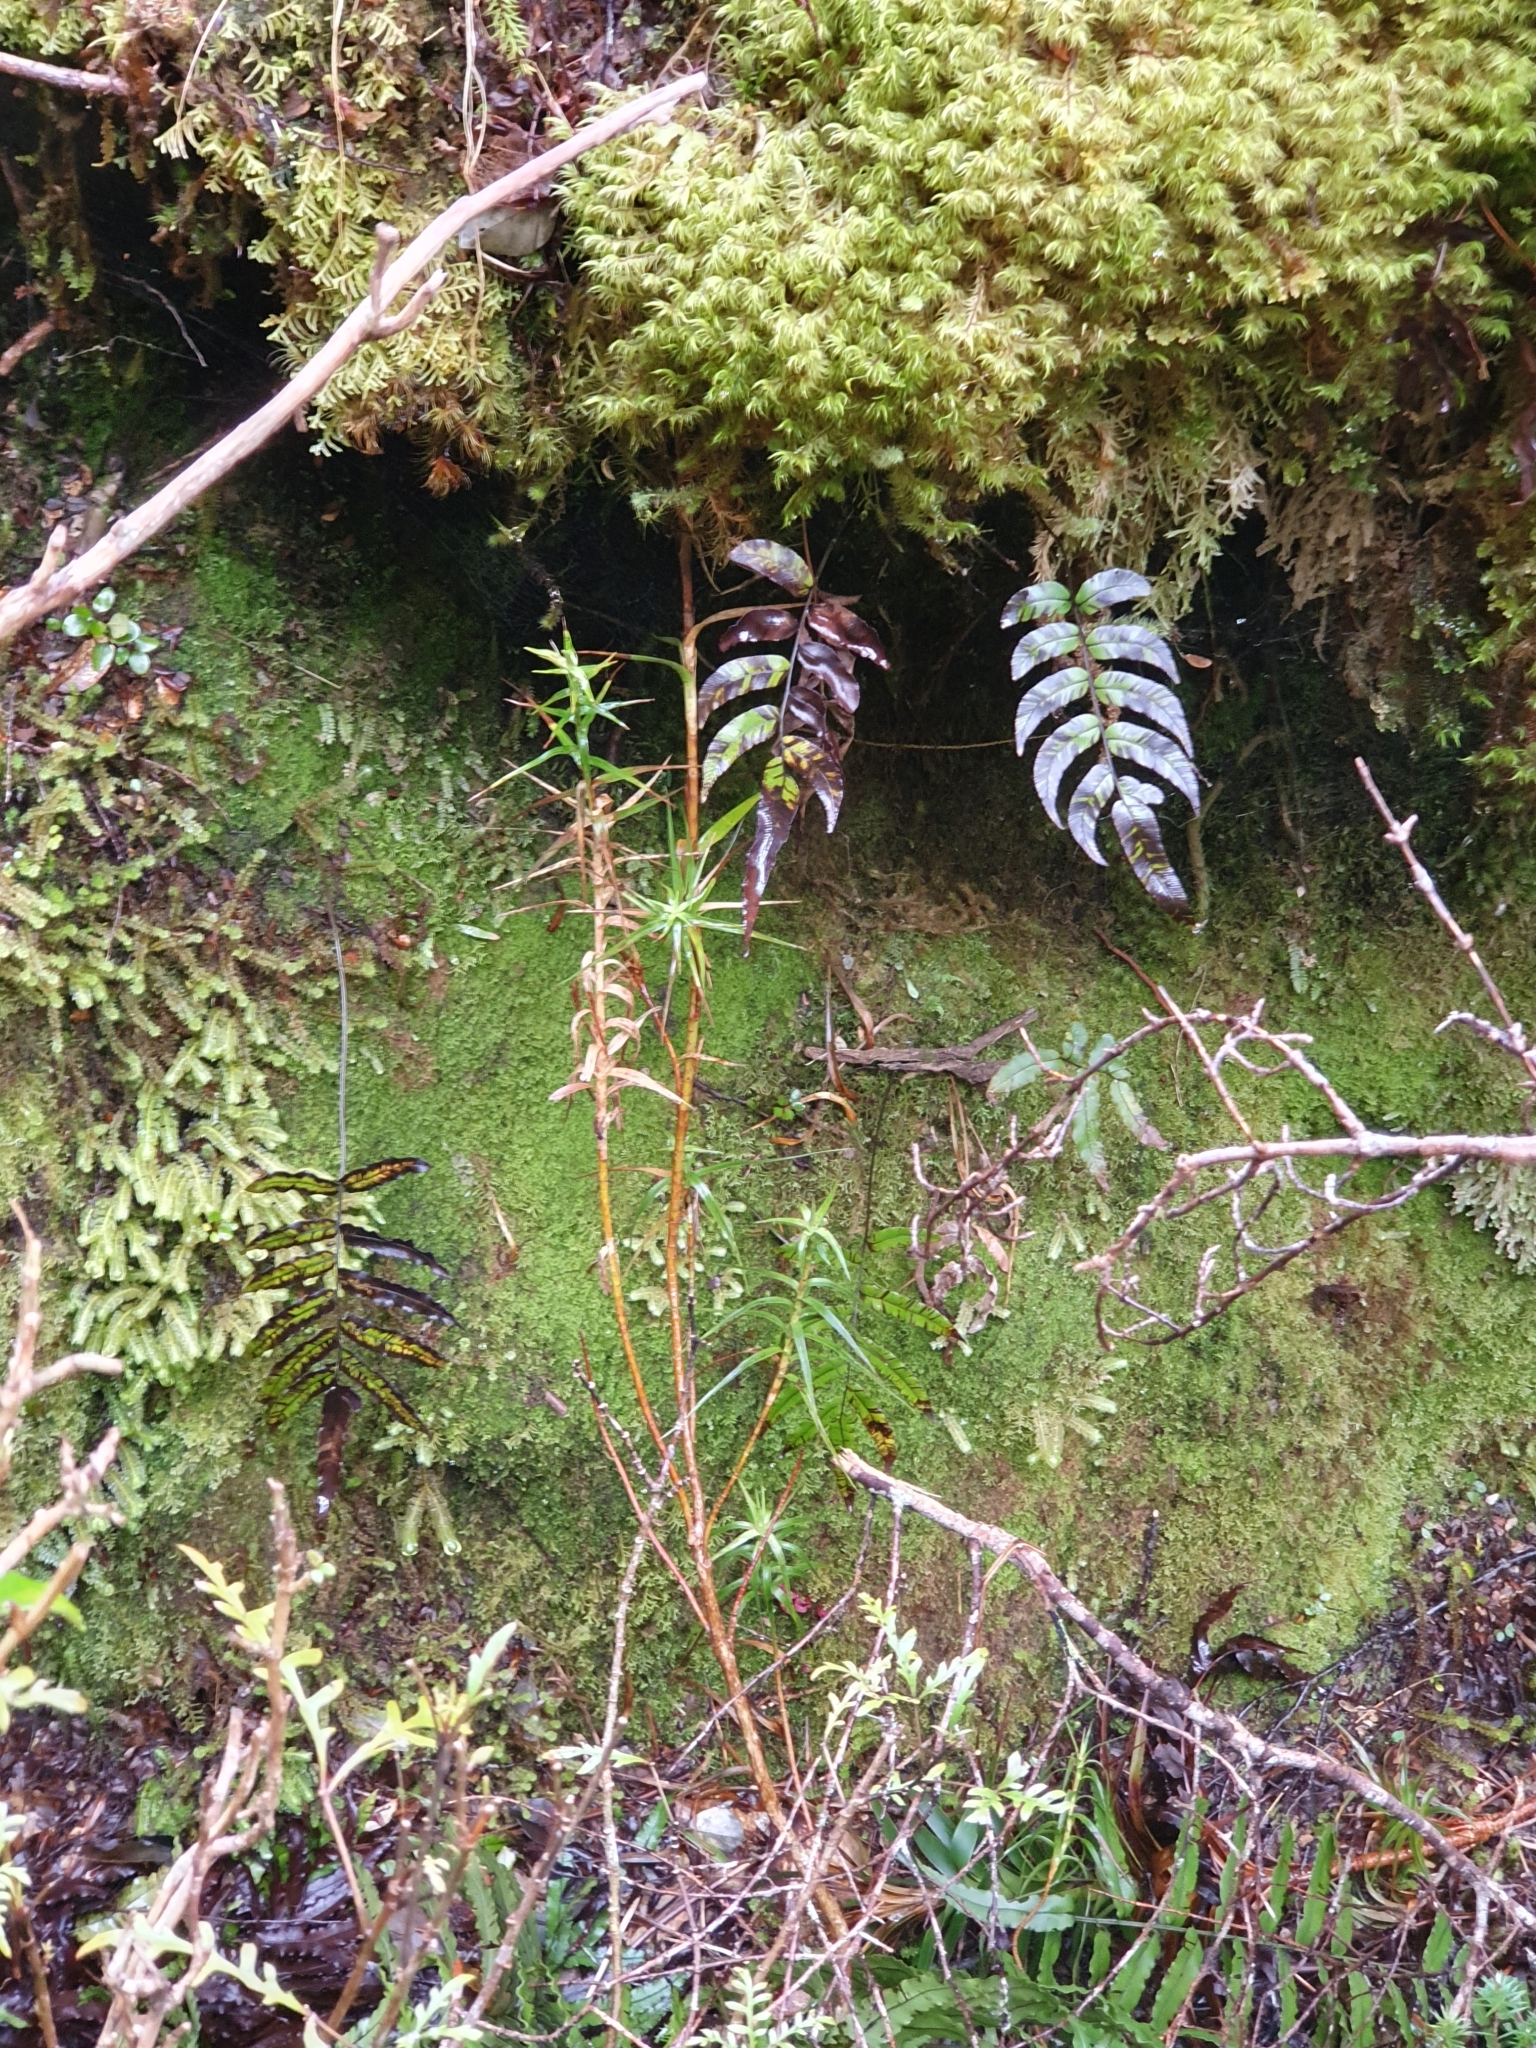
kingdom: Plantae
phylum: Tracheophyta
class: Magnoliopsida
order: Ericales
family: Ericaceae
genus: Dracophyllum
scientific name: Dracophyllum longifolium
